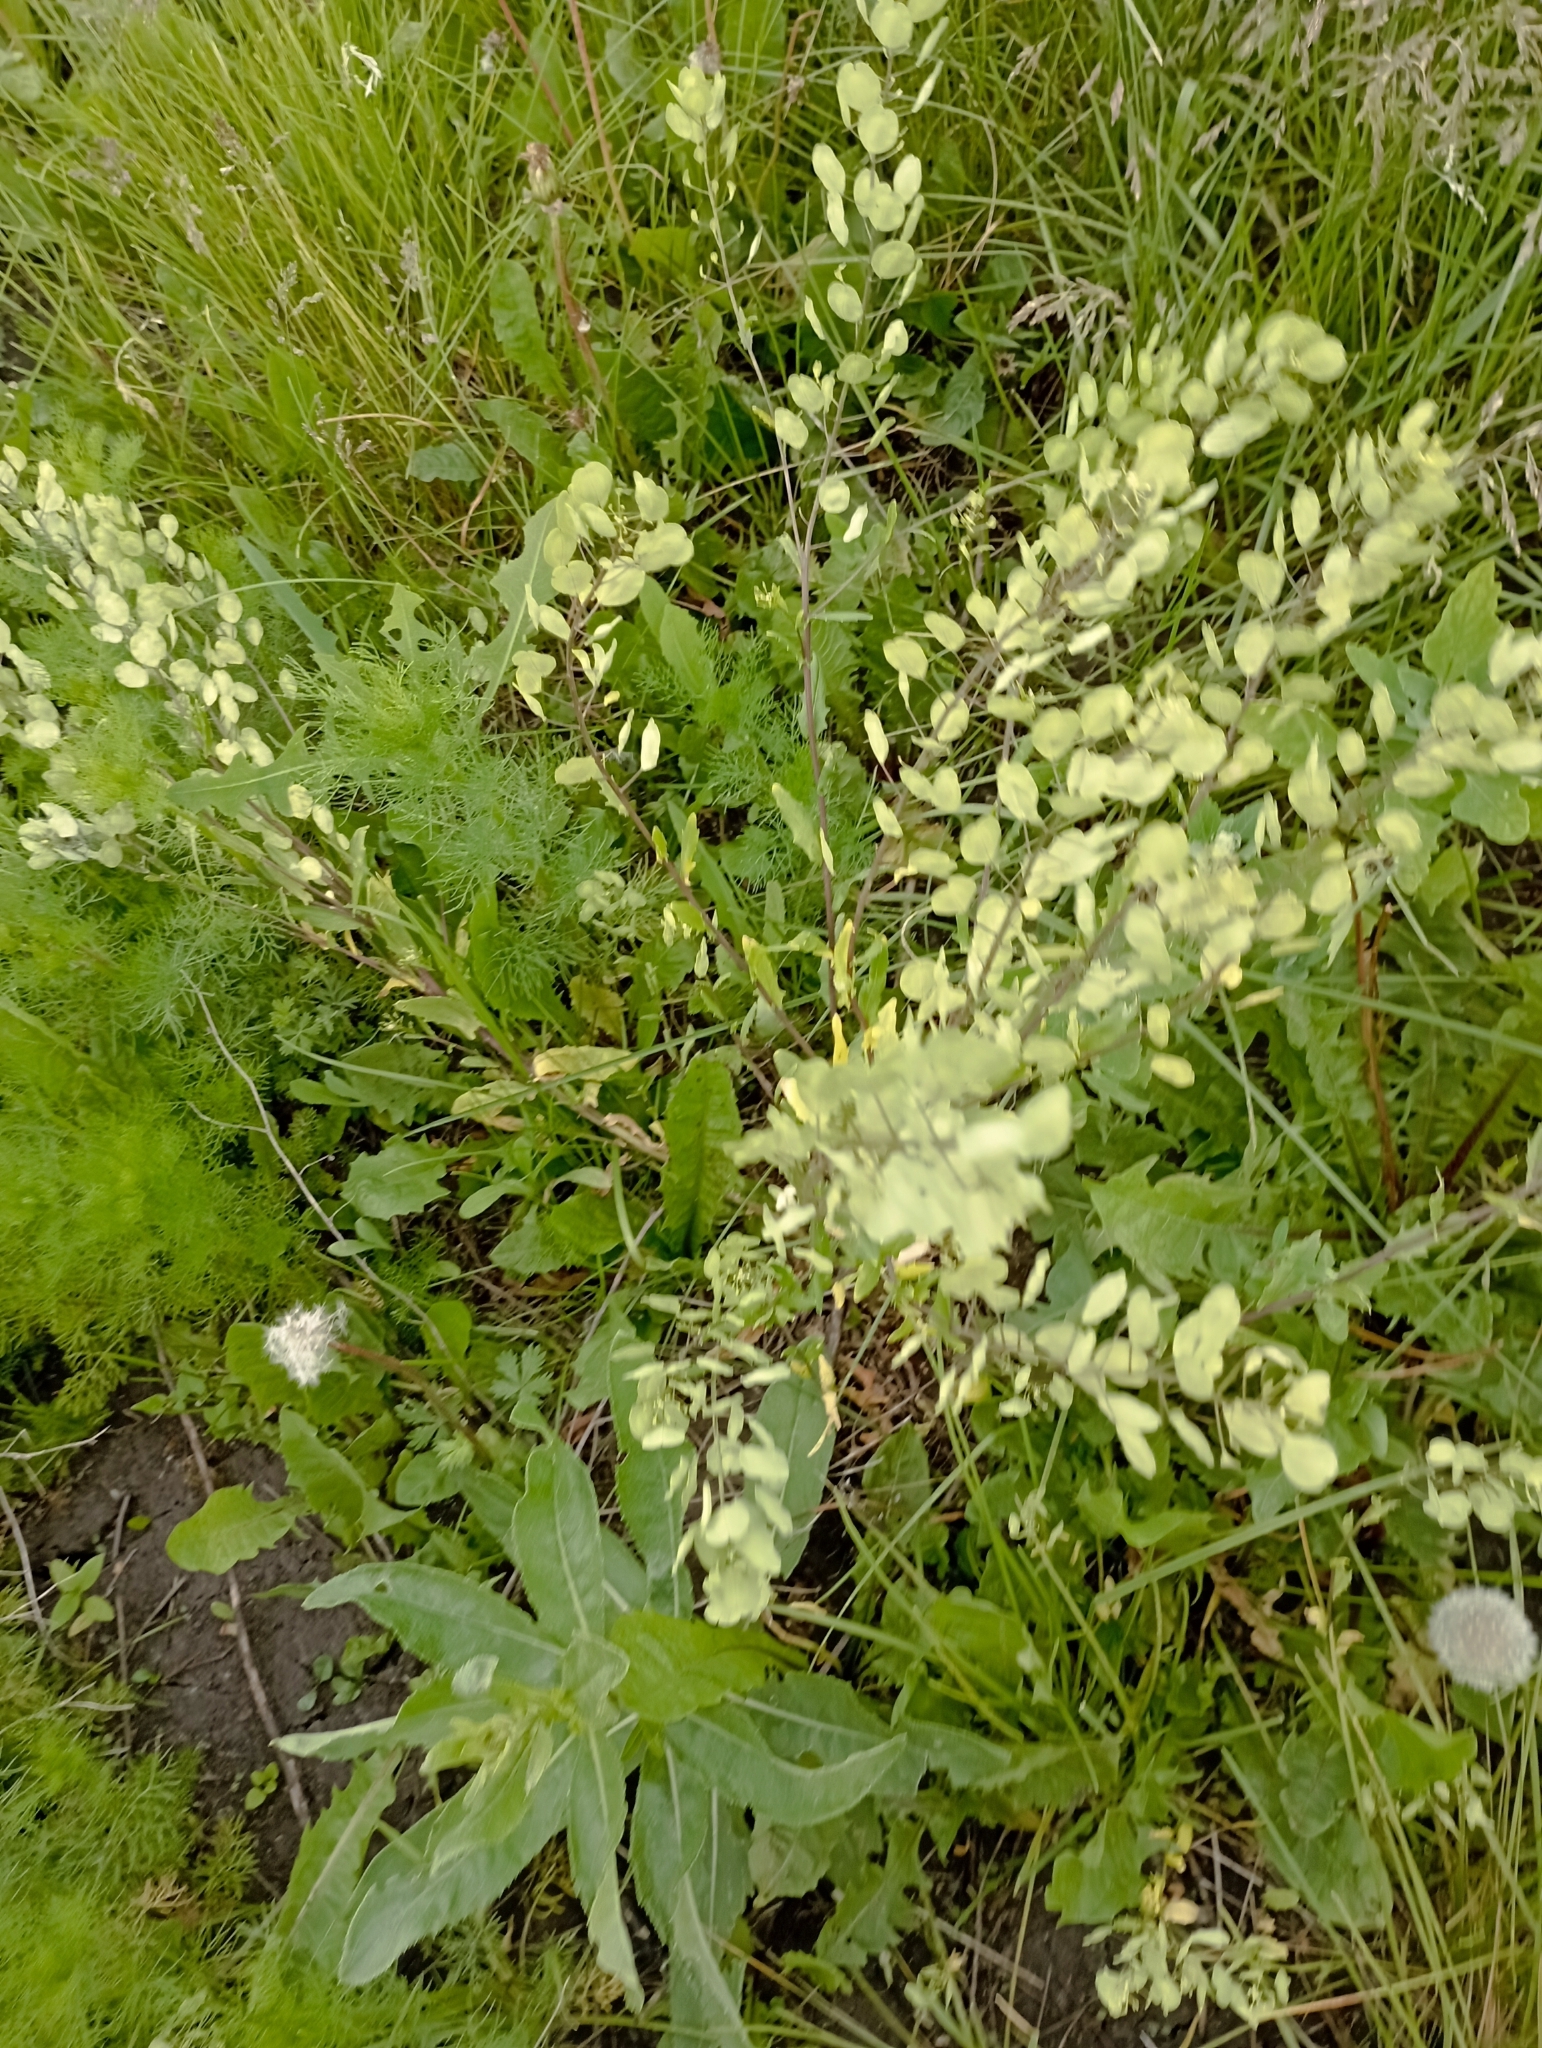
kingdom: Plantae
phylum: Tracheophyta
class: Magnoliopsida
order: Brassicales
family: Brassicaceae
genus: Thlaspi
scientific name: Thlaspi arvense
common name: Field pennycress
